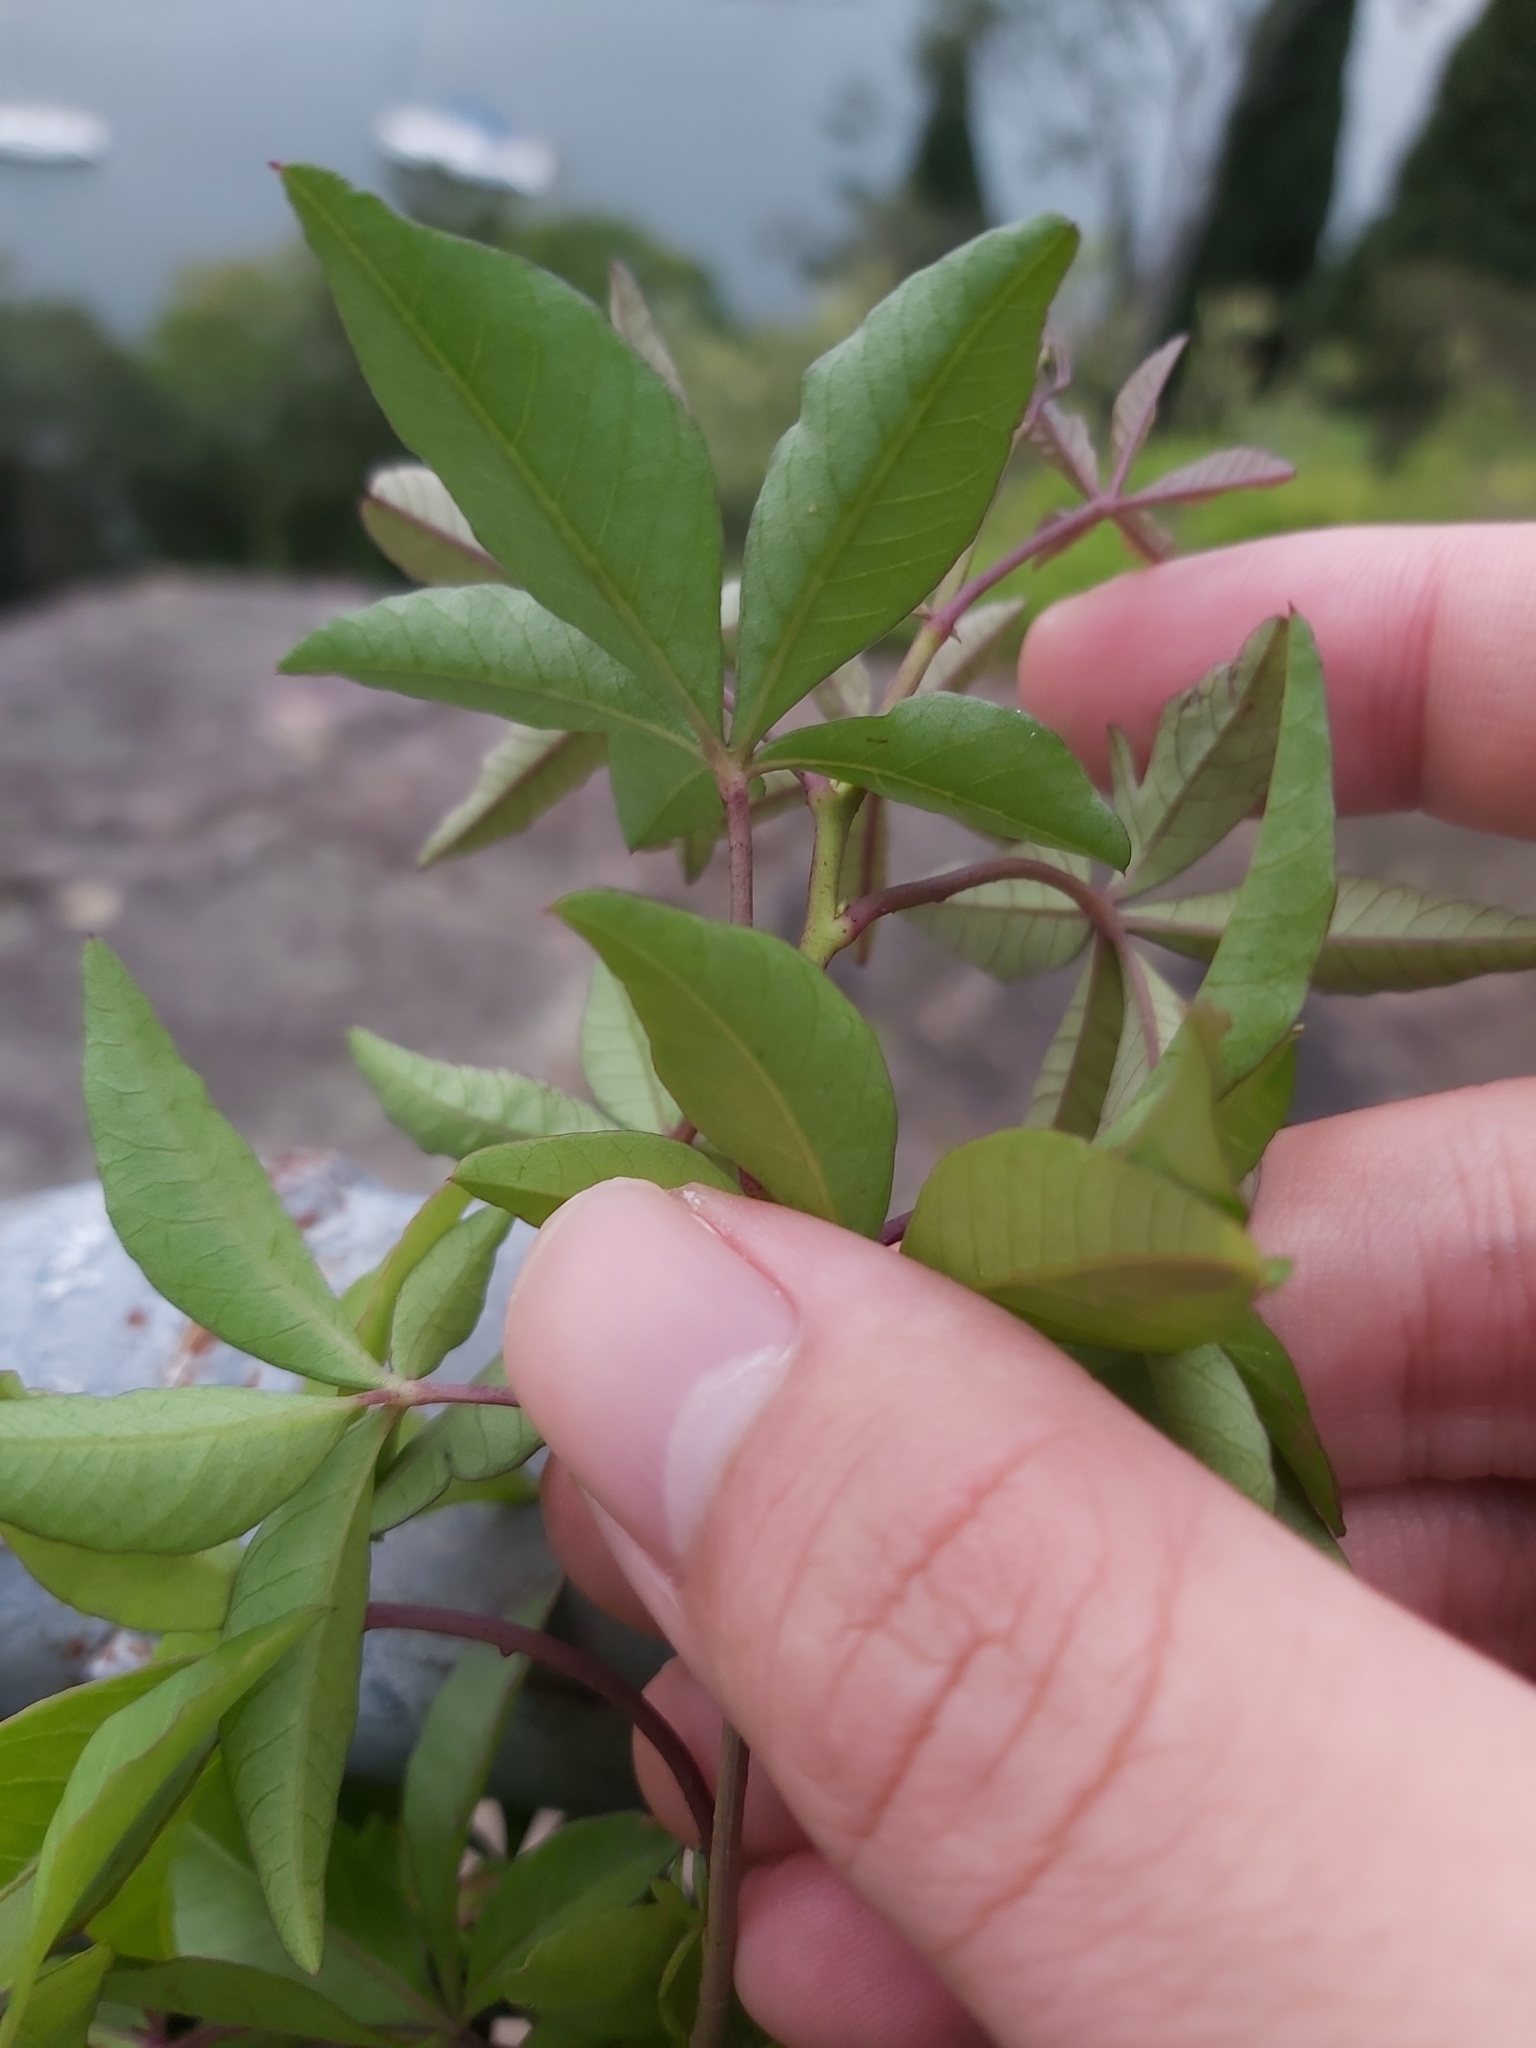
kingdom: Plantae
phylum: Tracheophyta
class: Magnoliopsida
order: Solanales
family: Convolvulaceae
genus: Ipomoea
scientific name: Ipomoea cairica
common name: Mile a minute vine
